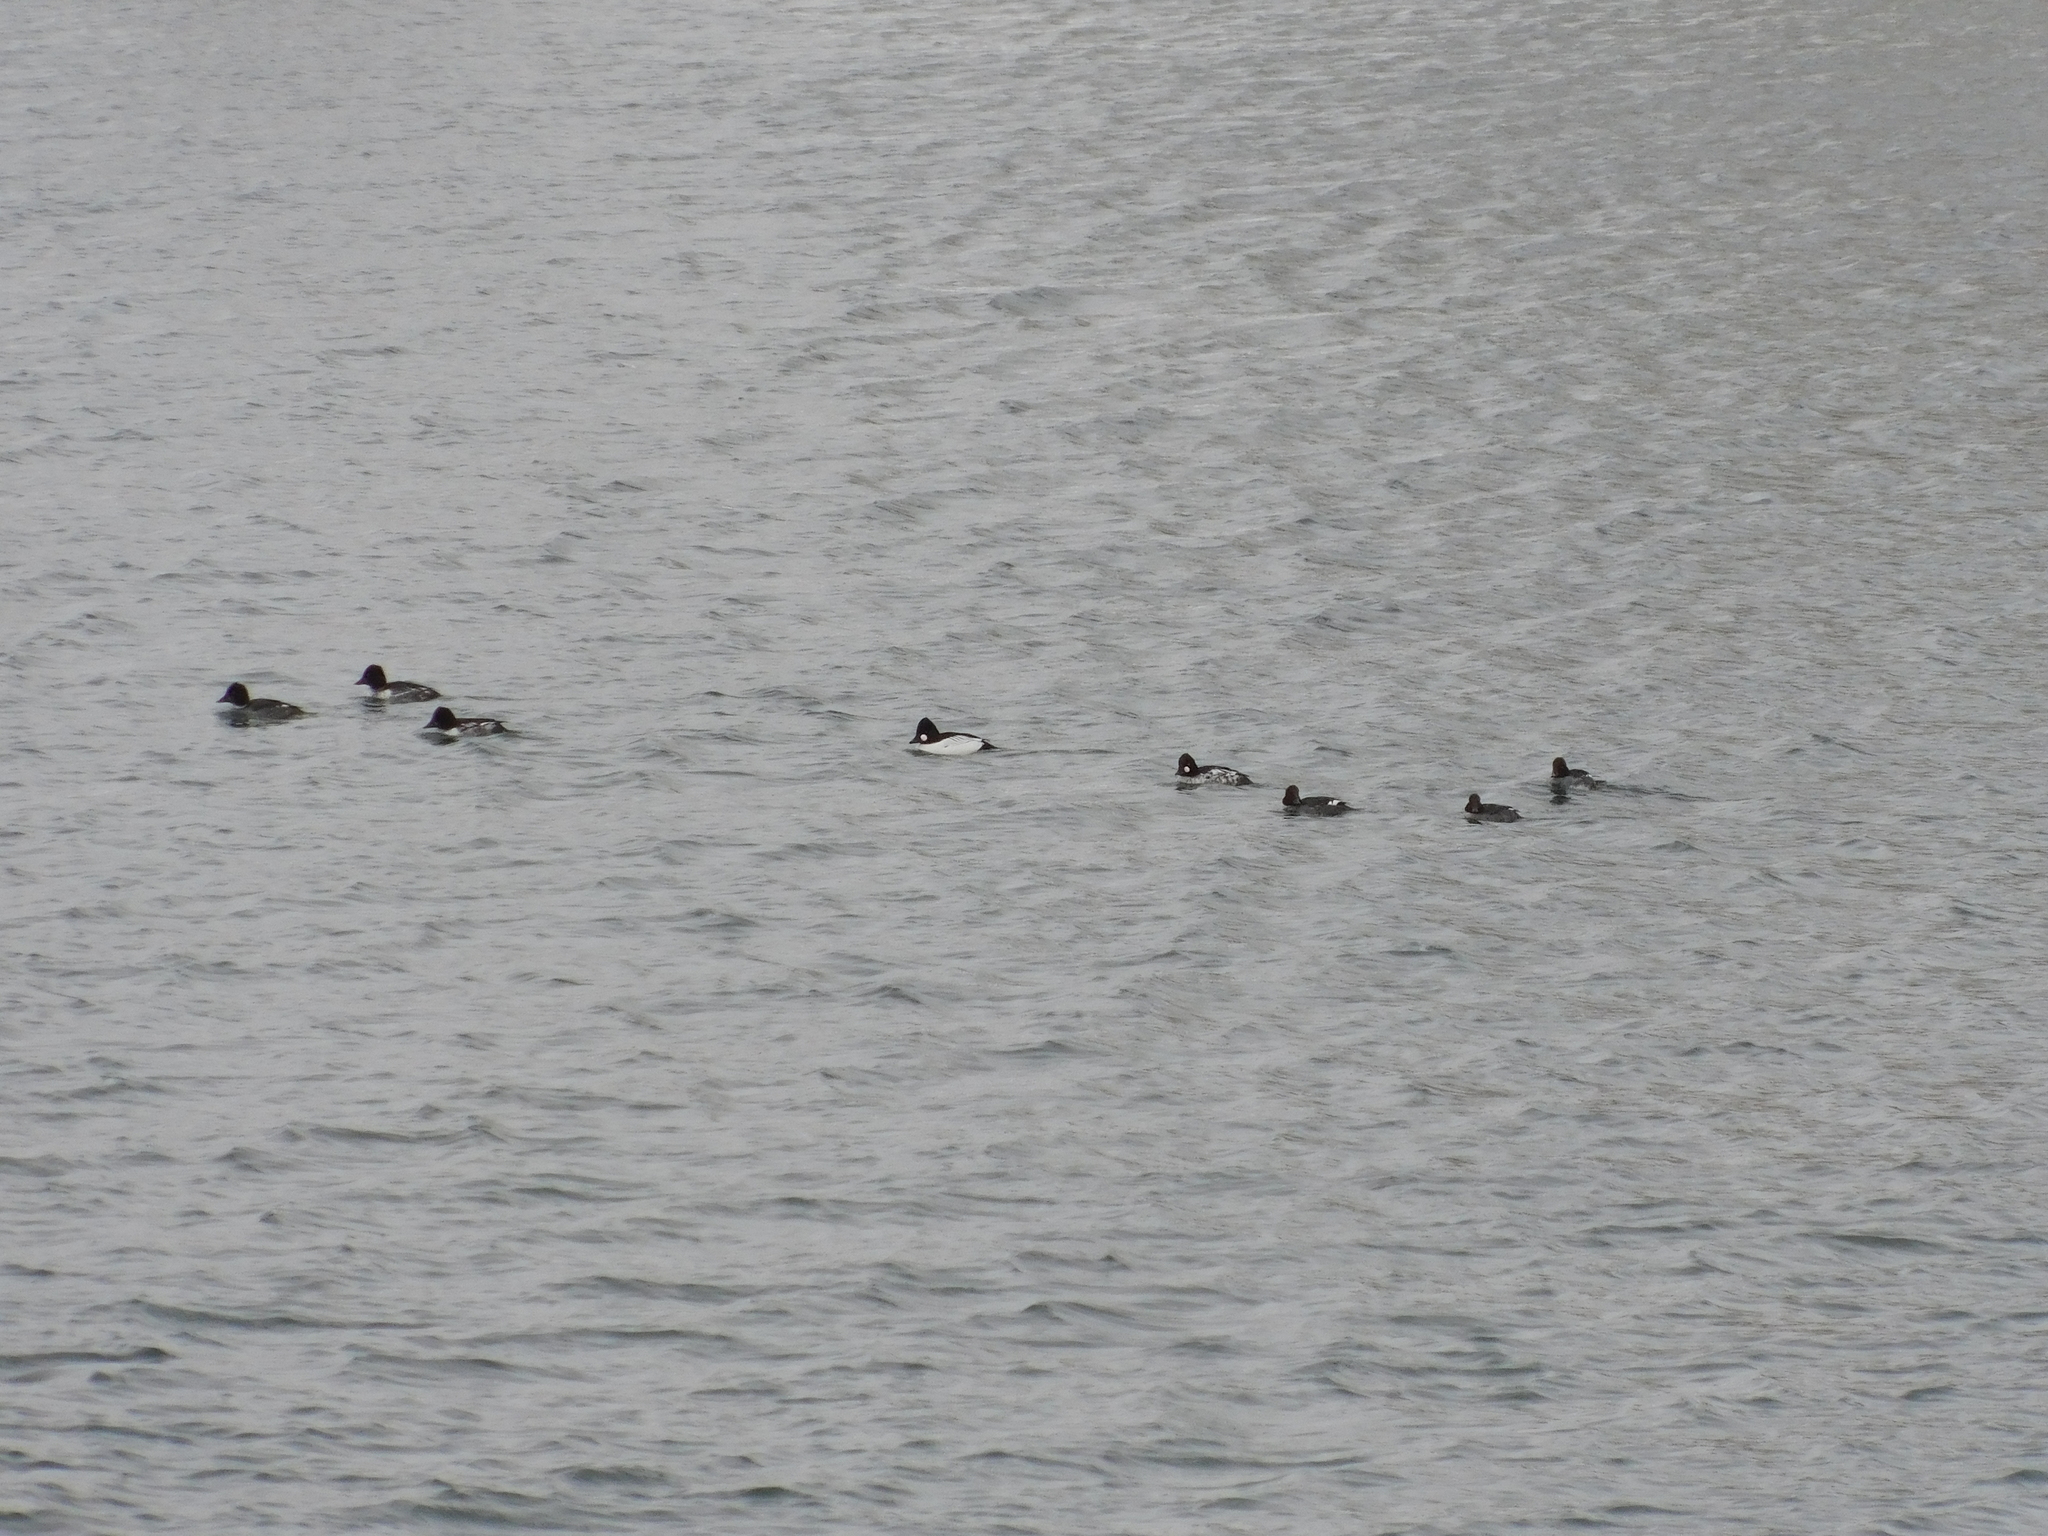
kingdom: Animalia
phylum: Chordata
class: Aves
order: Anseriformes
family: Anatidae
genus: Bucephala
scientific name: Bucephala clangula
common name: Common goldeneye
